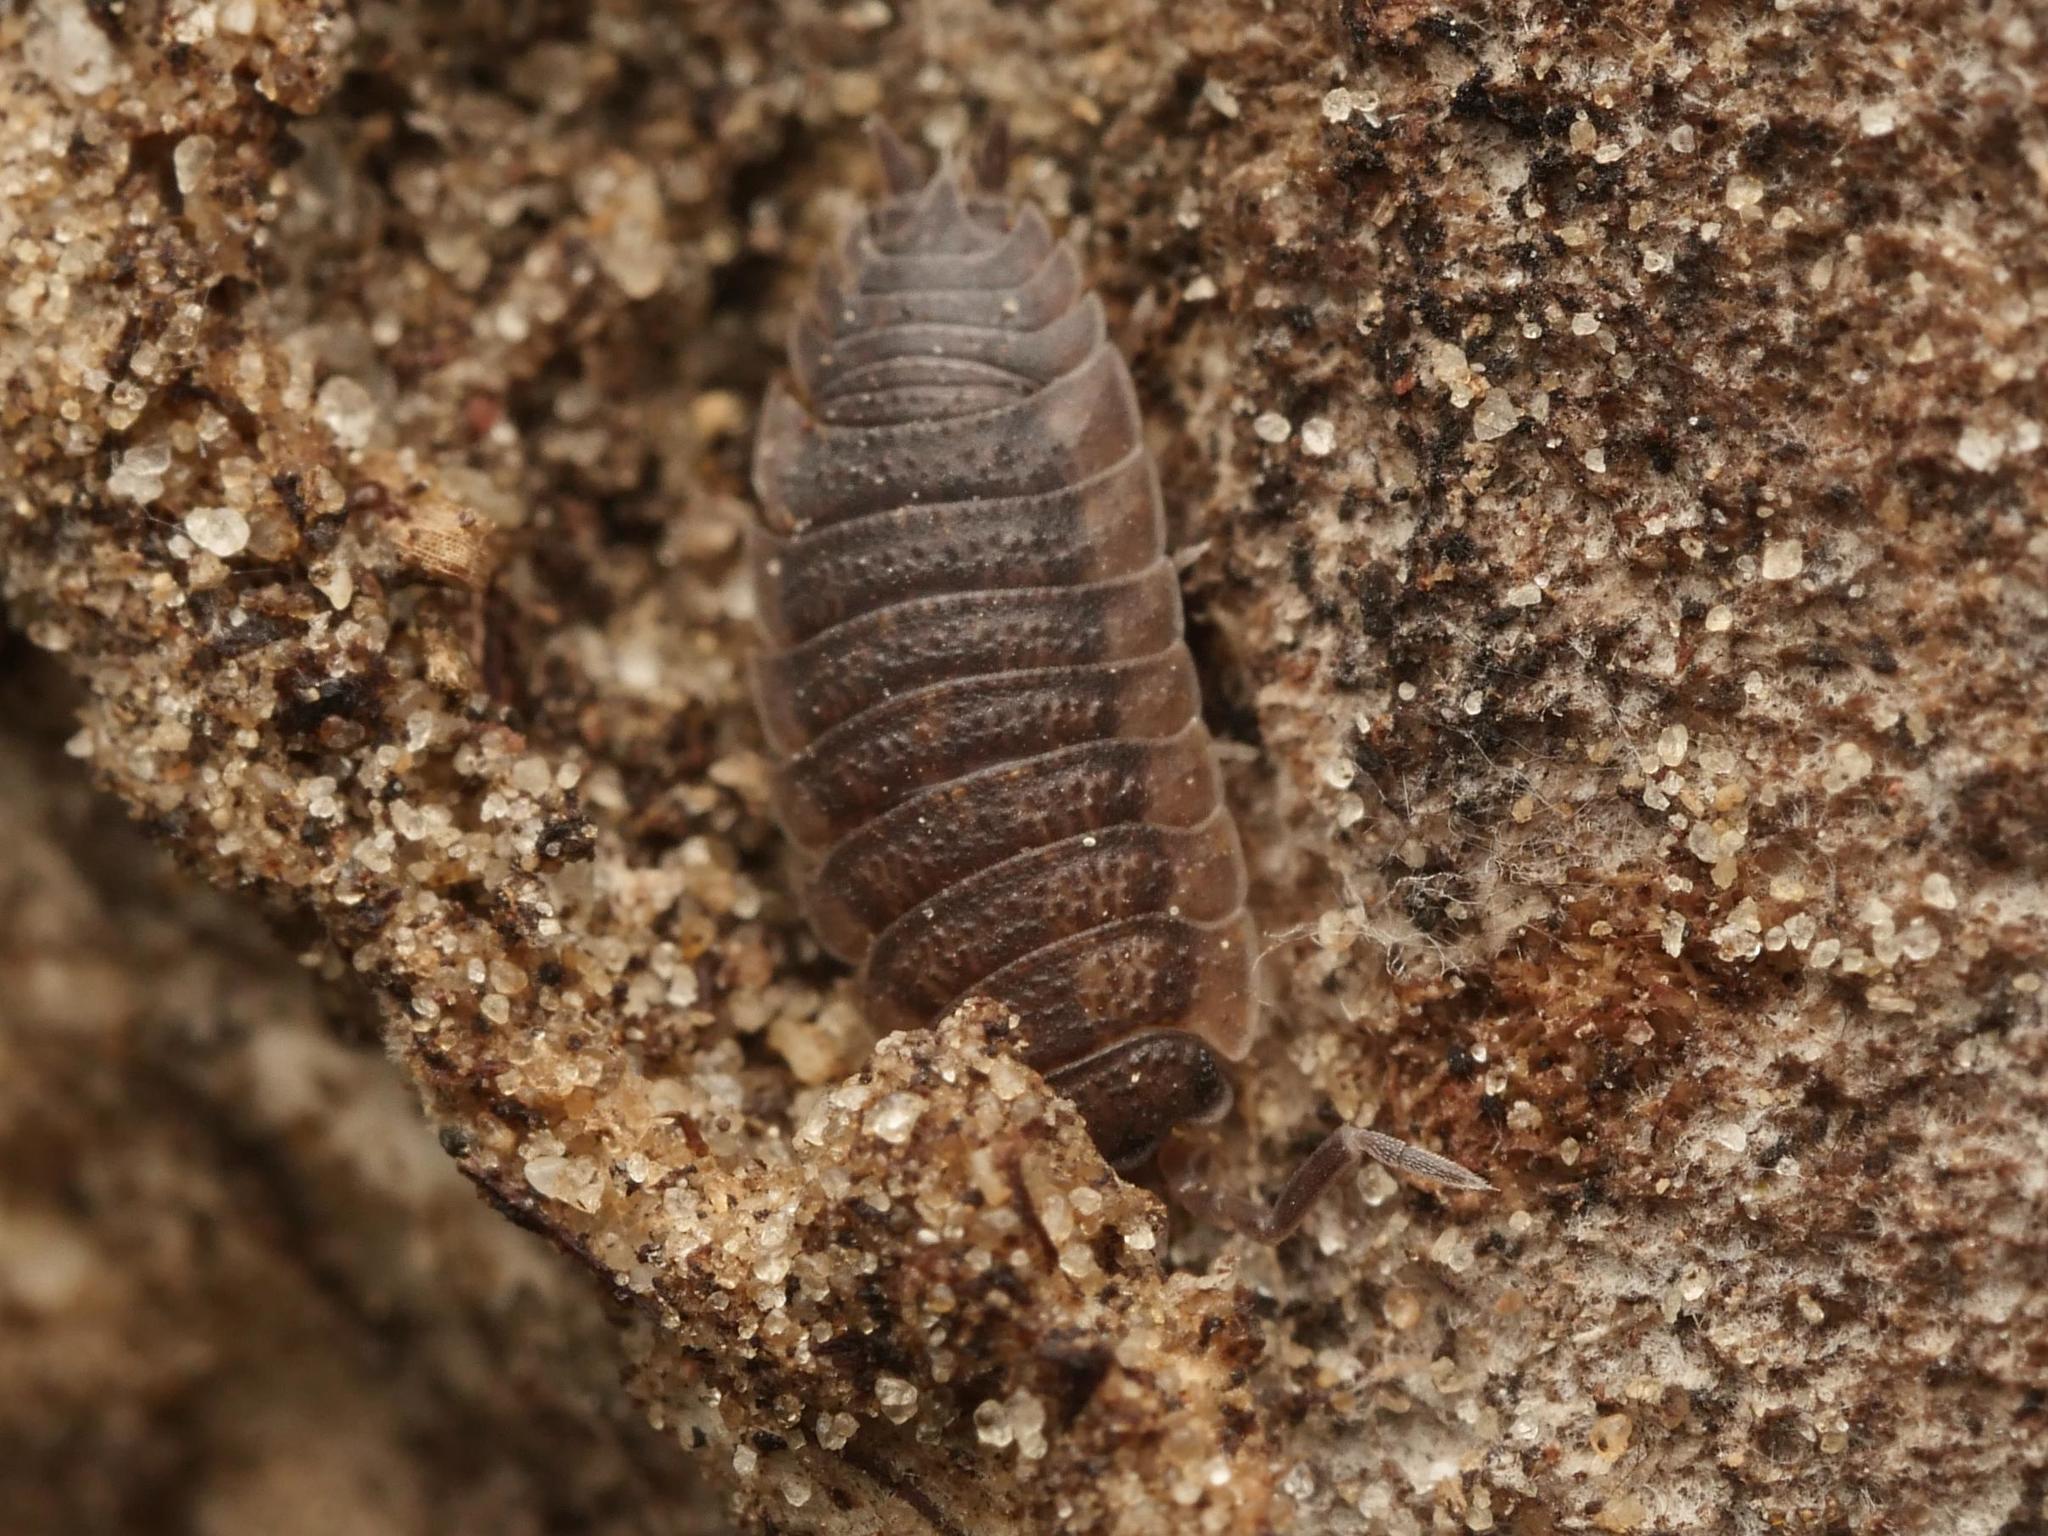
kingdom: Animalia
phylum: Arthropoda
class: Malacostraca
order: Isopoda
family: Porcellionidae
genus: Porcellio
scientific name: Porcellio scaber
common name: Common rough woodlouse
